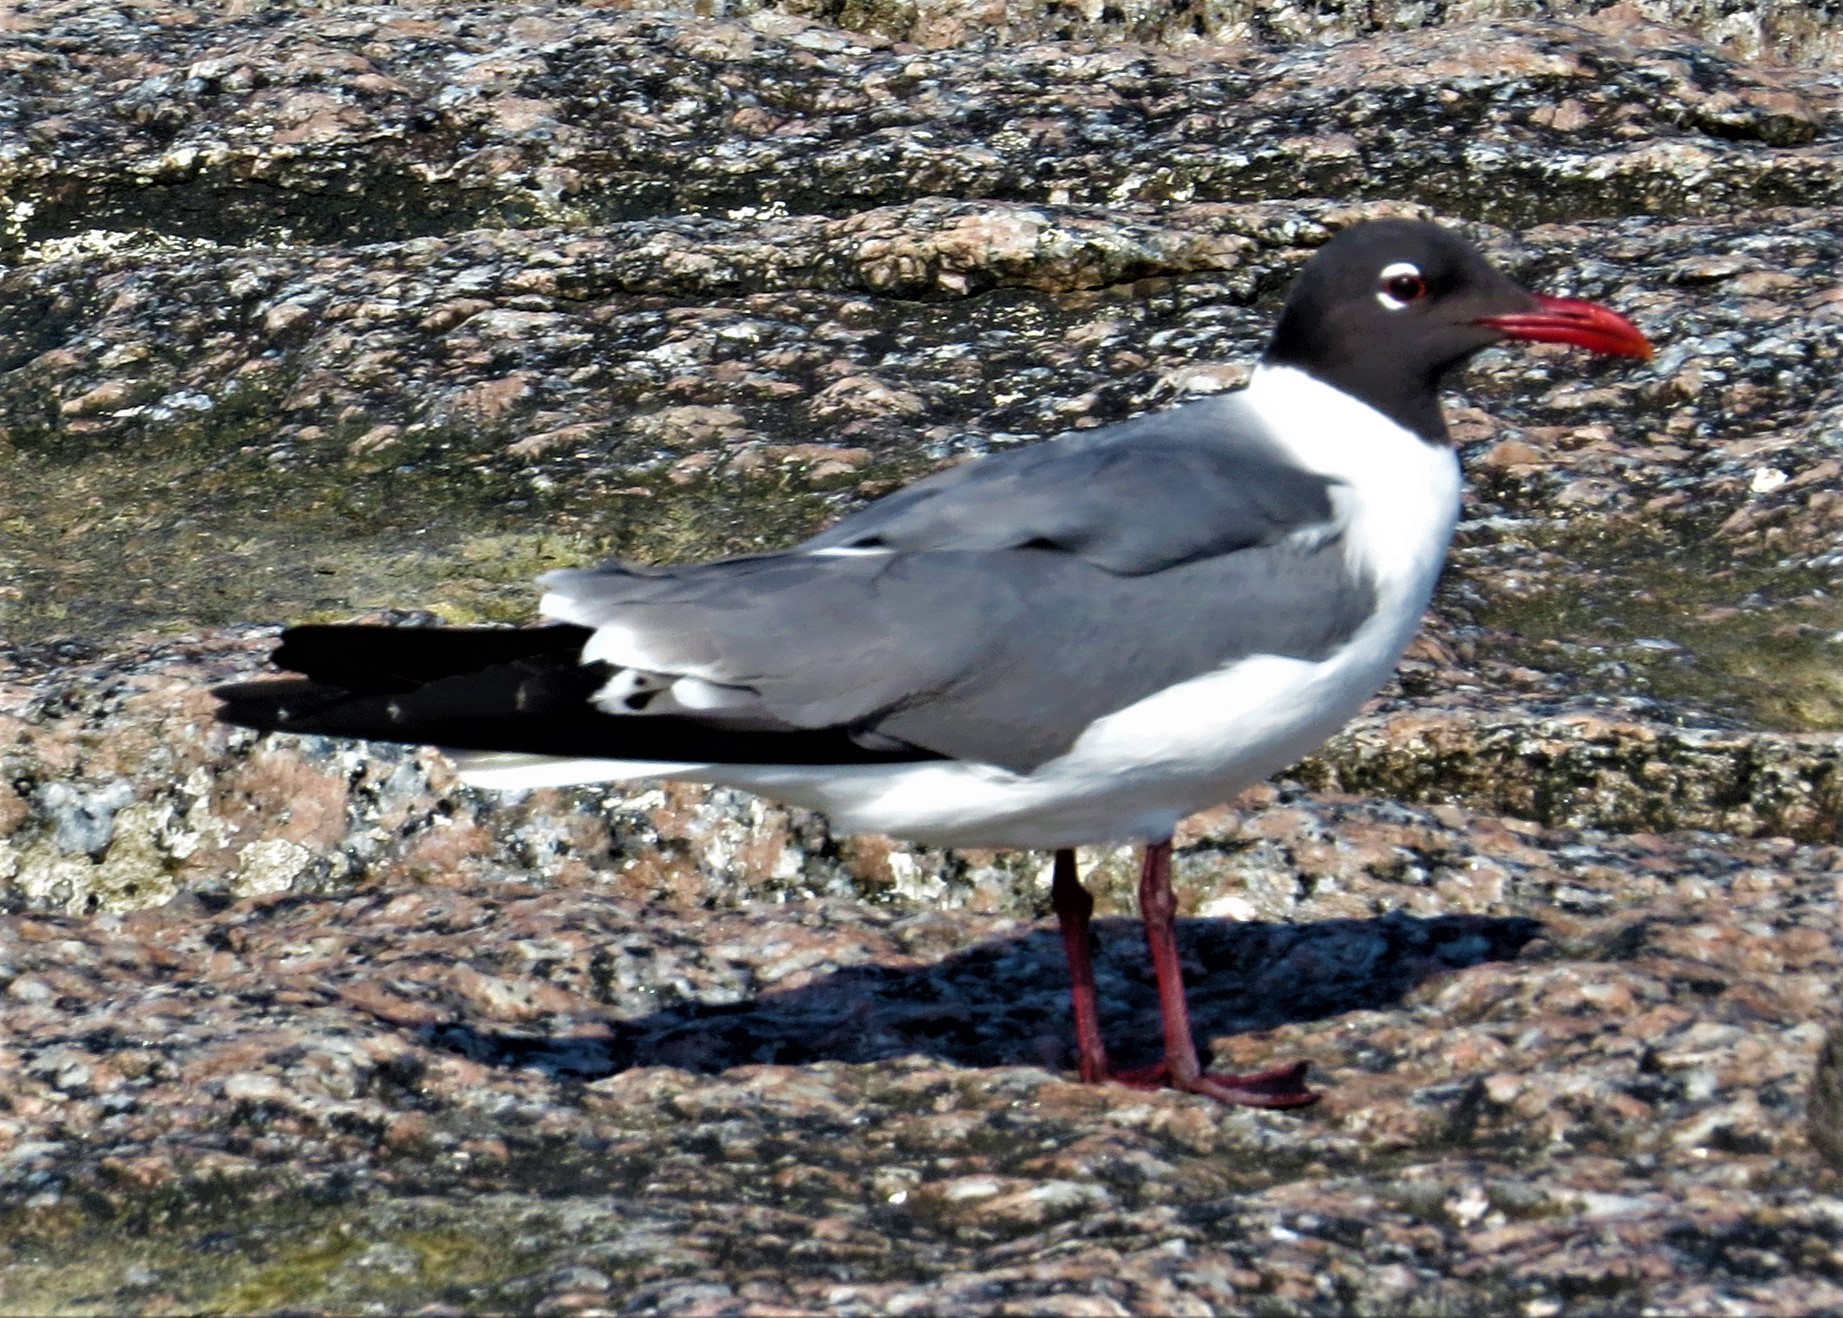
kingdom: Animalia
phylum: Chordata
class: Aves
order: Charadriiformes
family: Laridae
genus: Leucophaeus
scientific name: Leucophaeus atricilla
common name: Laughing gull
